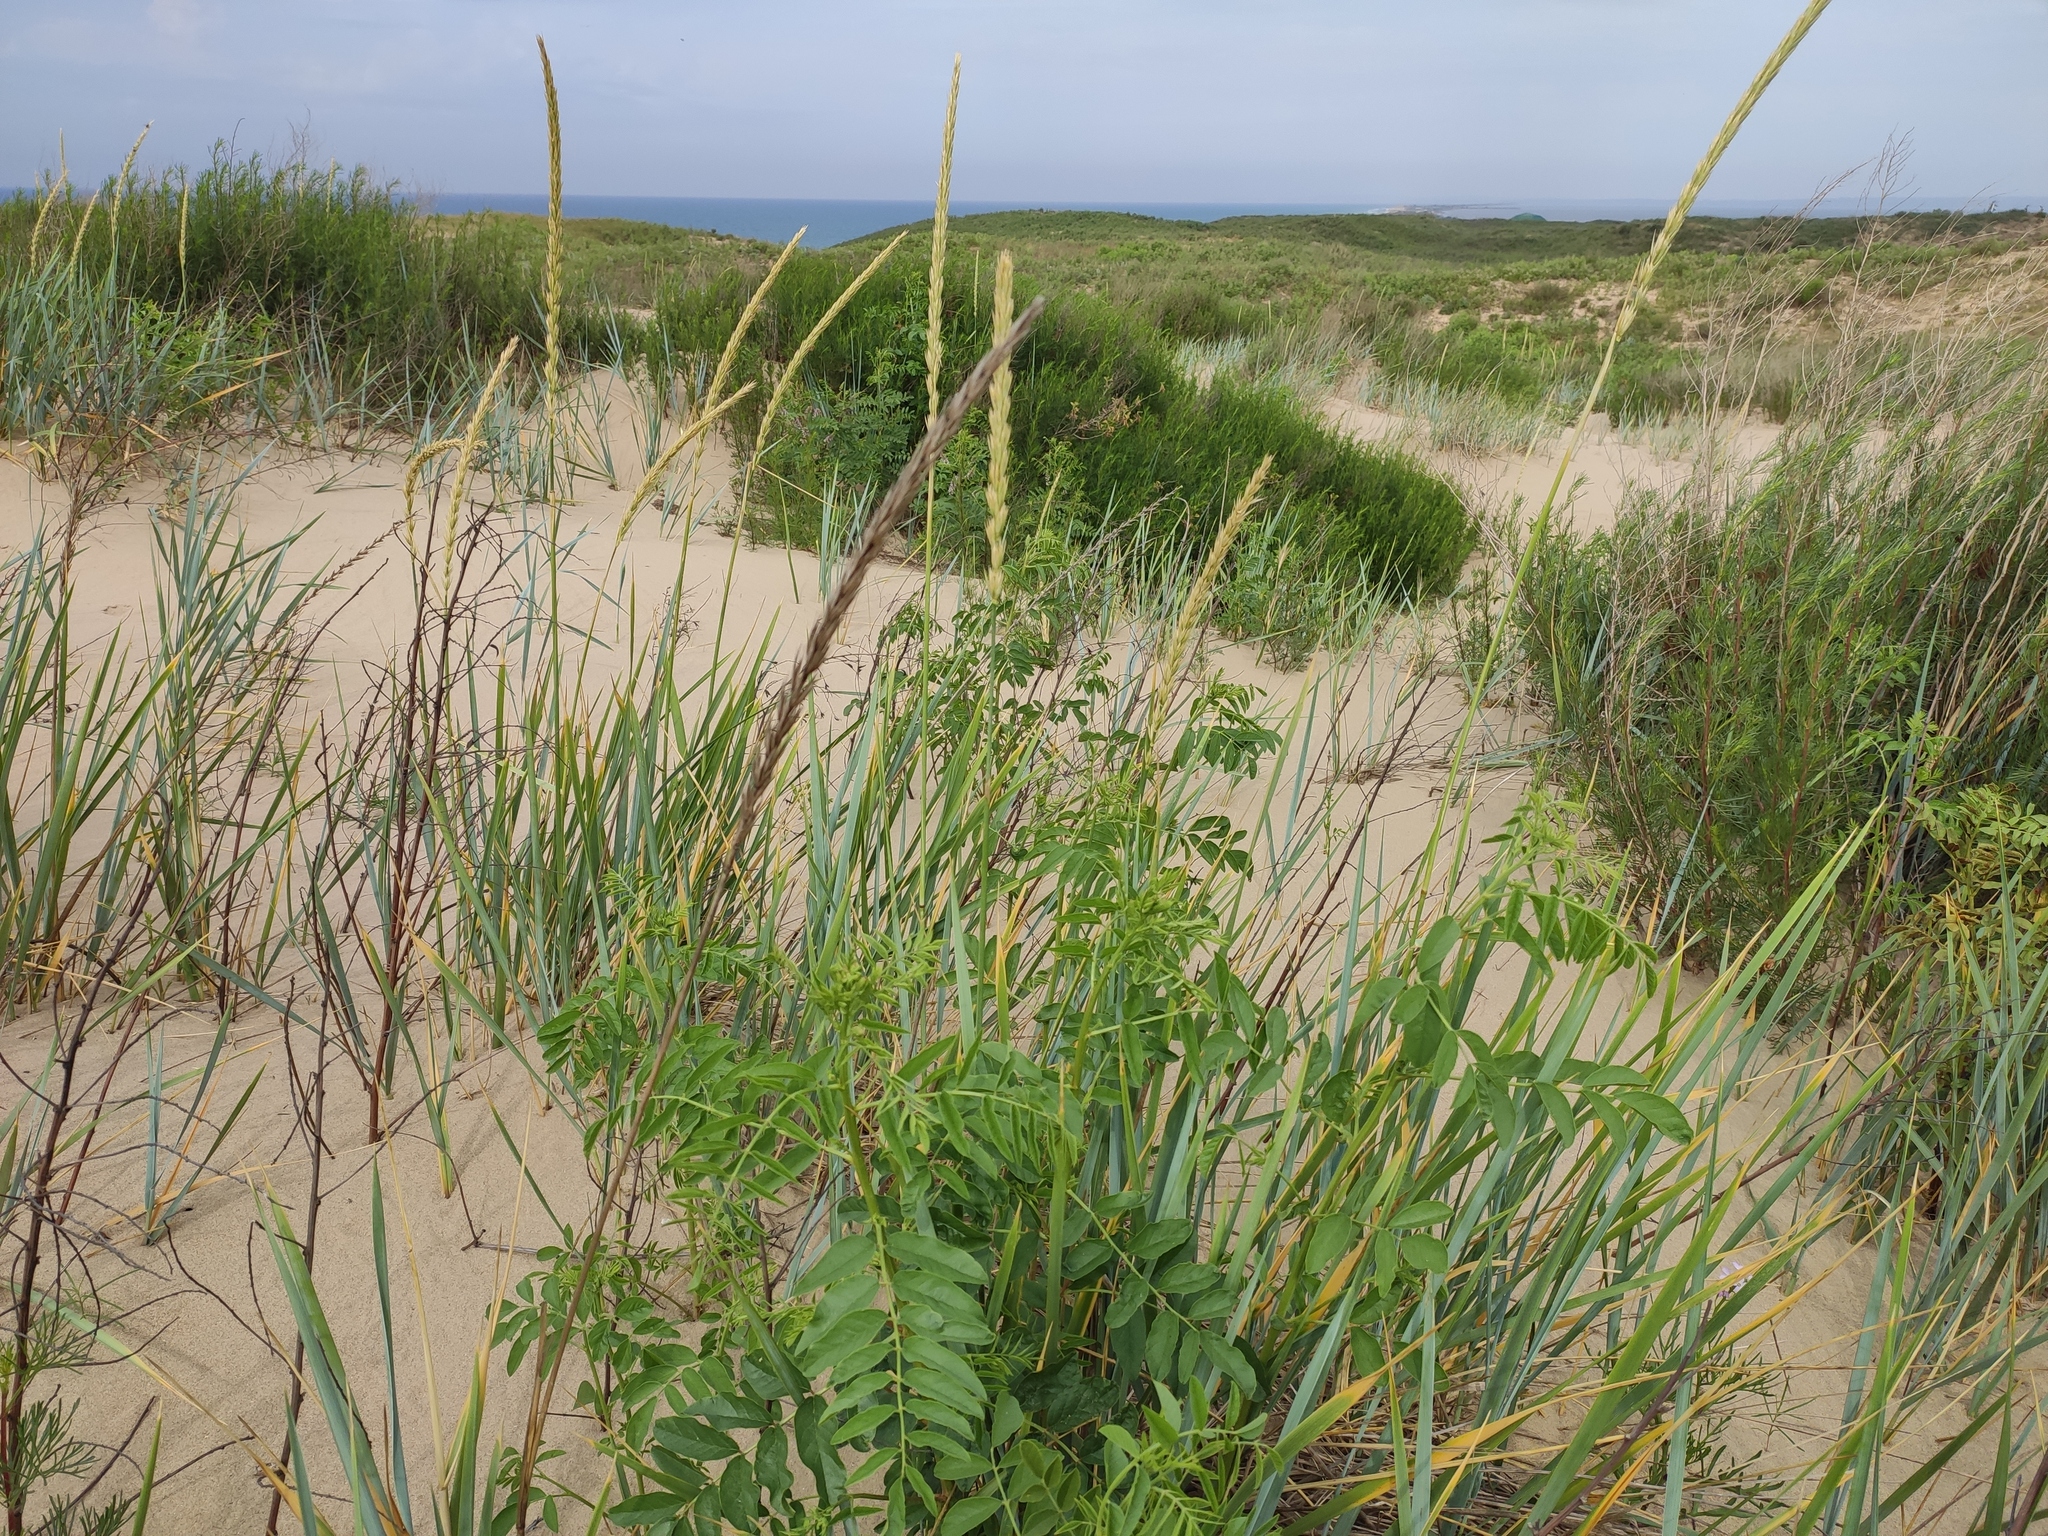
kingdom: Plantae
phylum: Tracheophyta
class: Liliopsida
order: Poales
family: Poaceae
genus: Leymus
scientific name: Leymus racemosus
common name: Mammoth wildrye
